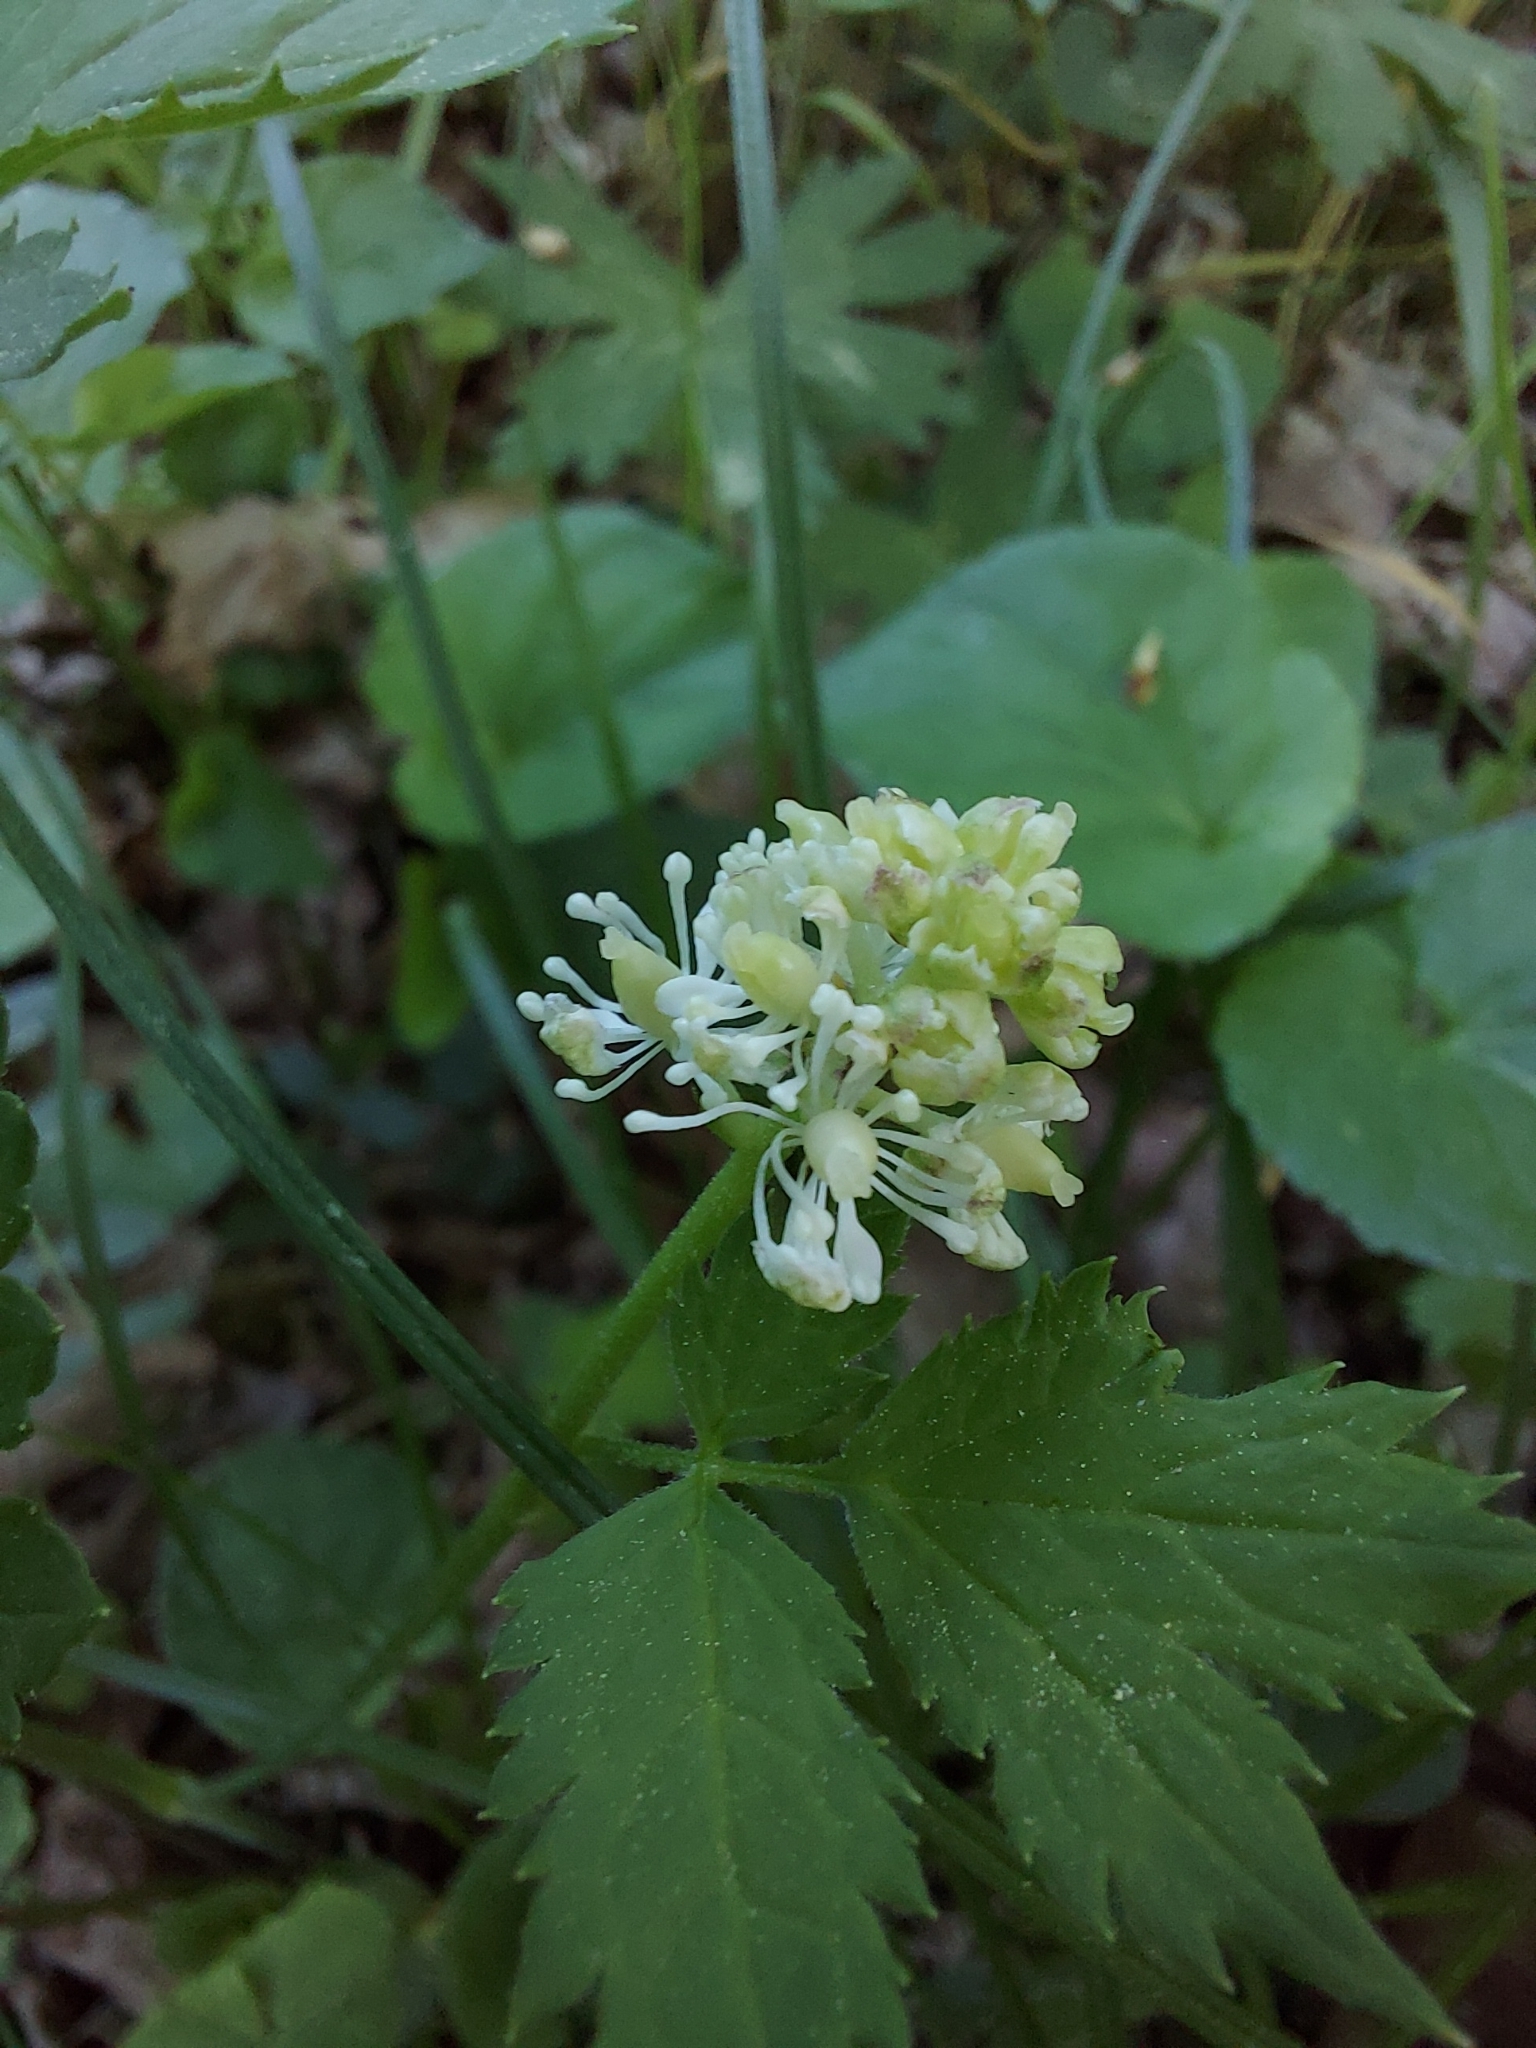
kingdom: Plantae
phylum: Tracheophyta
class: Magnoliopsida
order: Ranunculales
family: Ranunculaceae
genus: Actaea
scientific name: Actaea spicata
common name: Baneberry
